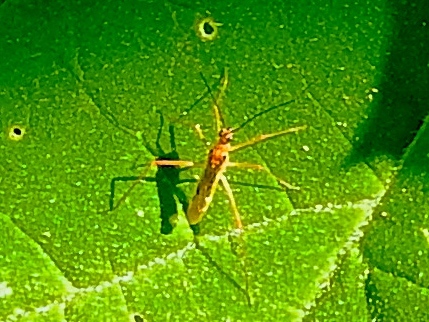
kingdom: Animalia
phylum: Arthropoda
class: Insecta
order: Hemiptera
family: Miridae
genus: Collaria
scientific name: Collaria
